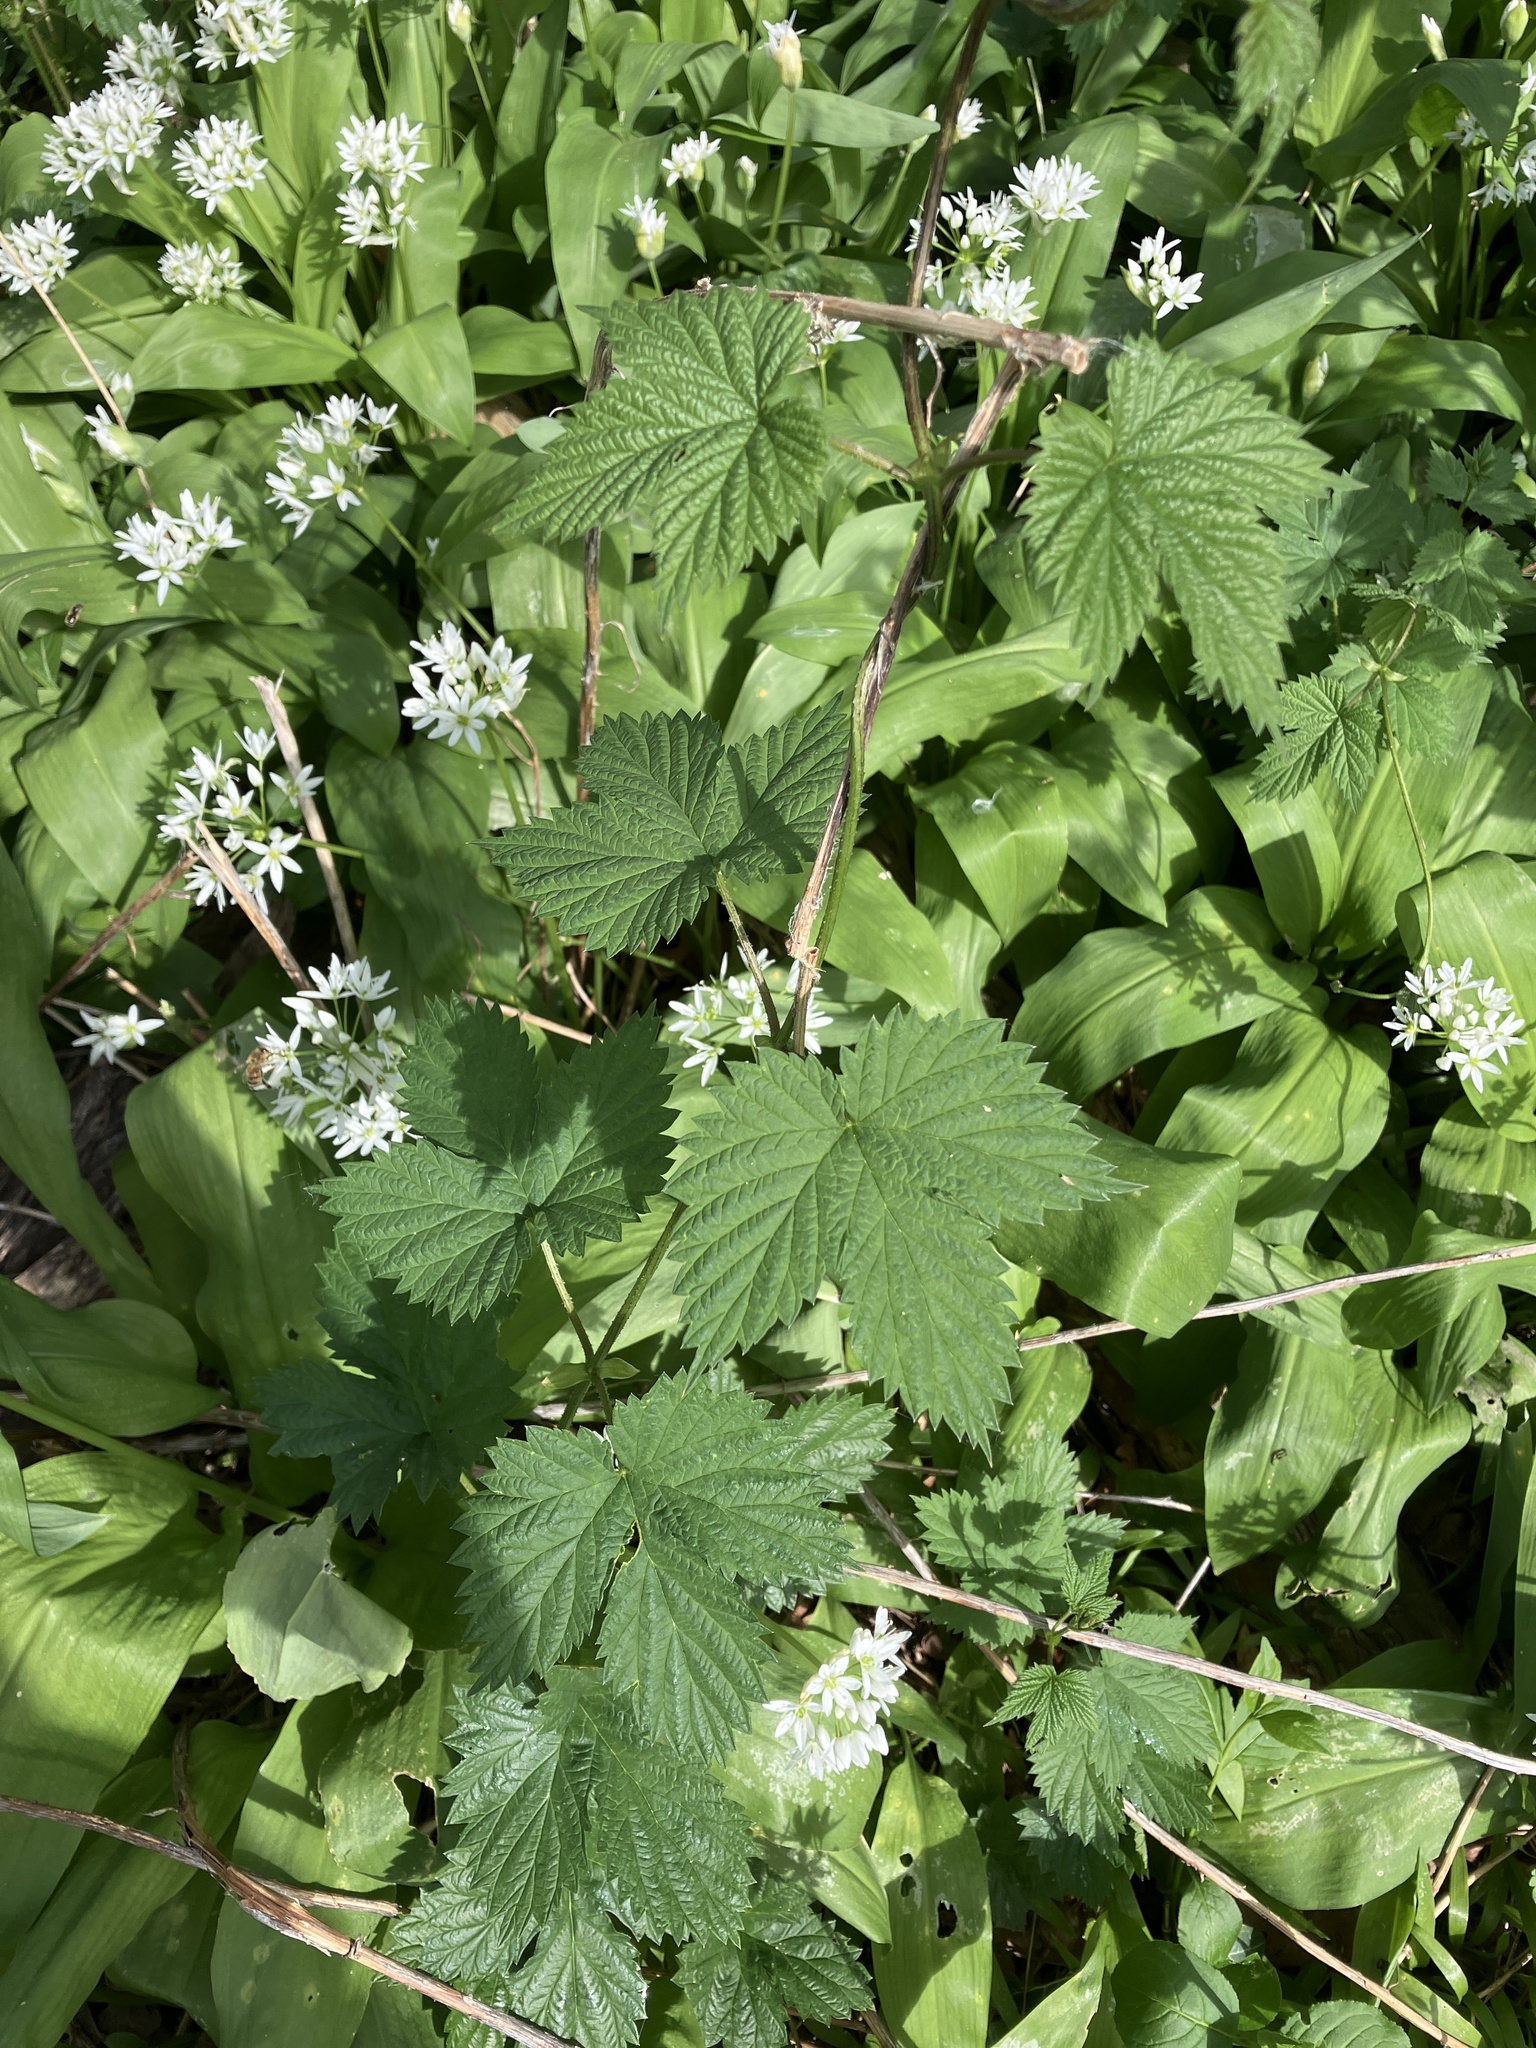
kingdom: Plantae
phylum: Tracheophyta
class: Magnoliopsida
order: Rosales
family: Cannabaceae
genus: Humulus
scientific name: Humulus lupulus
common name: Hop
